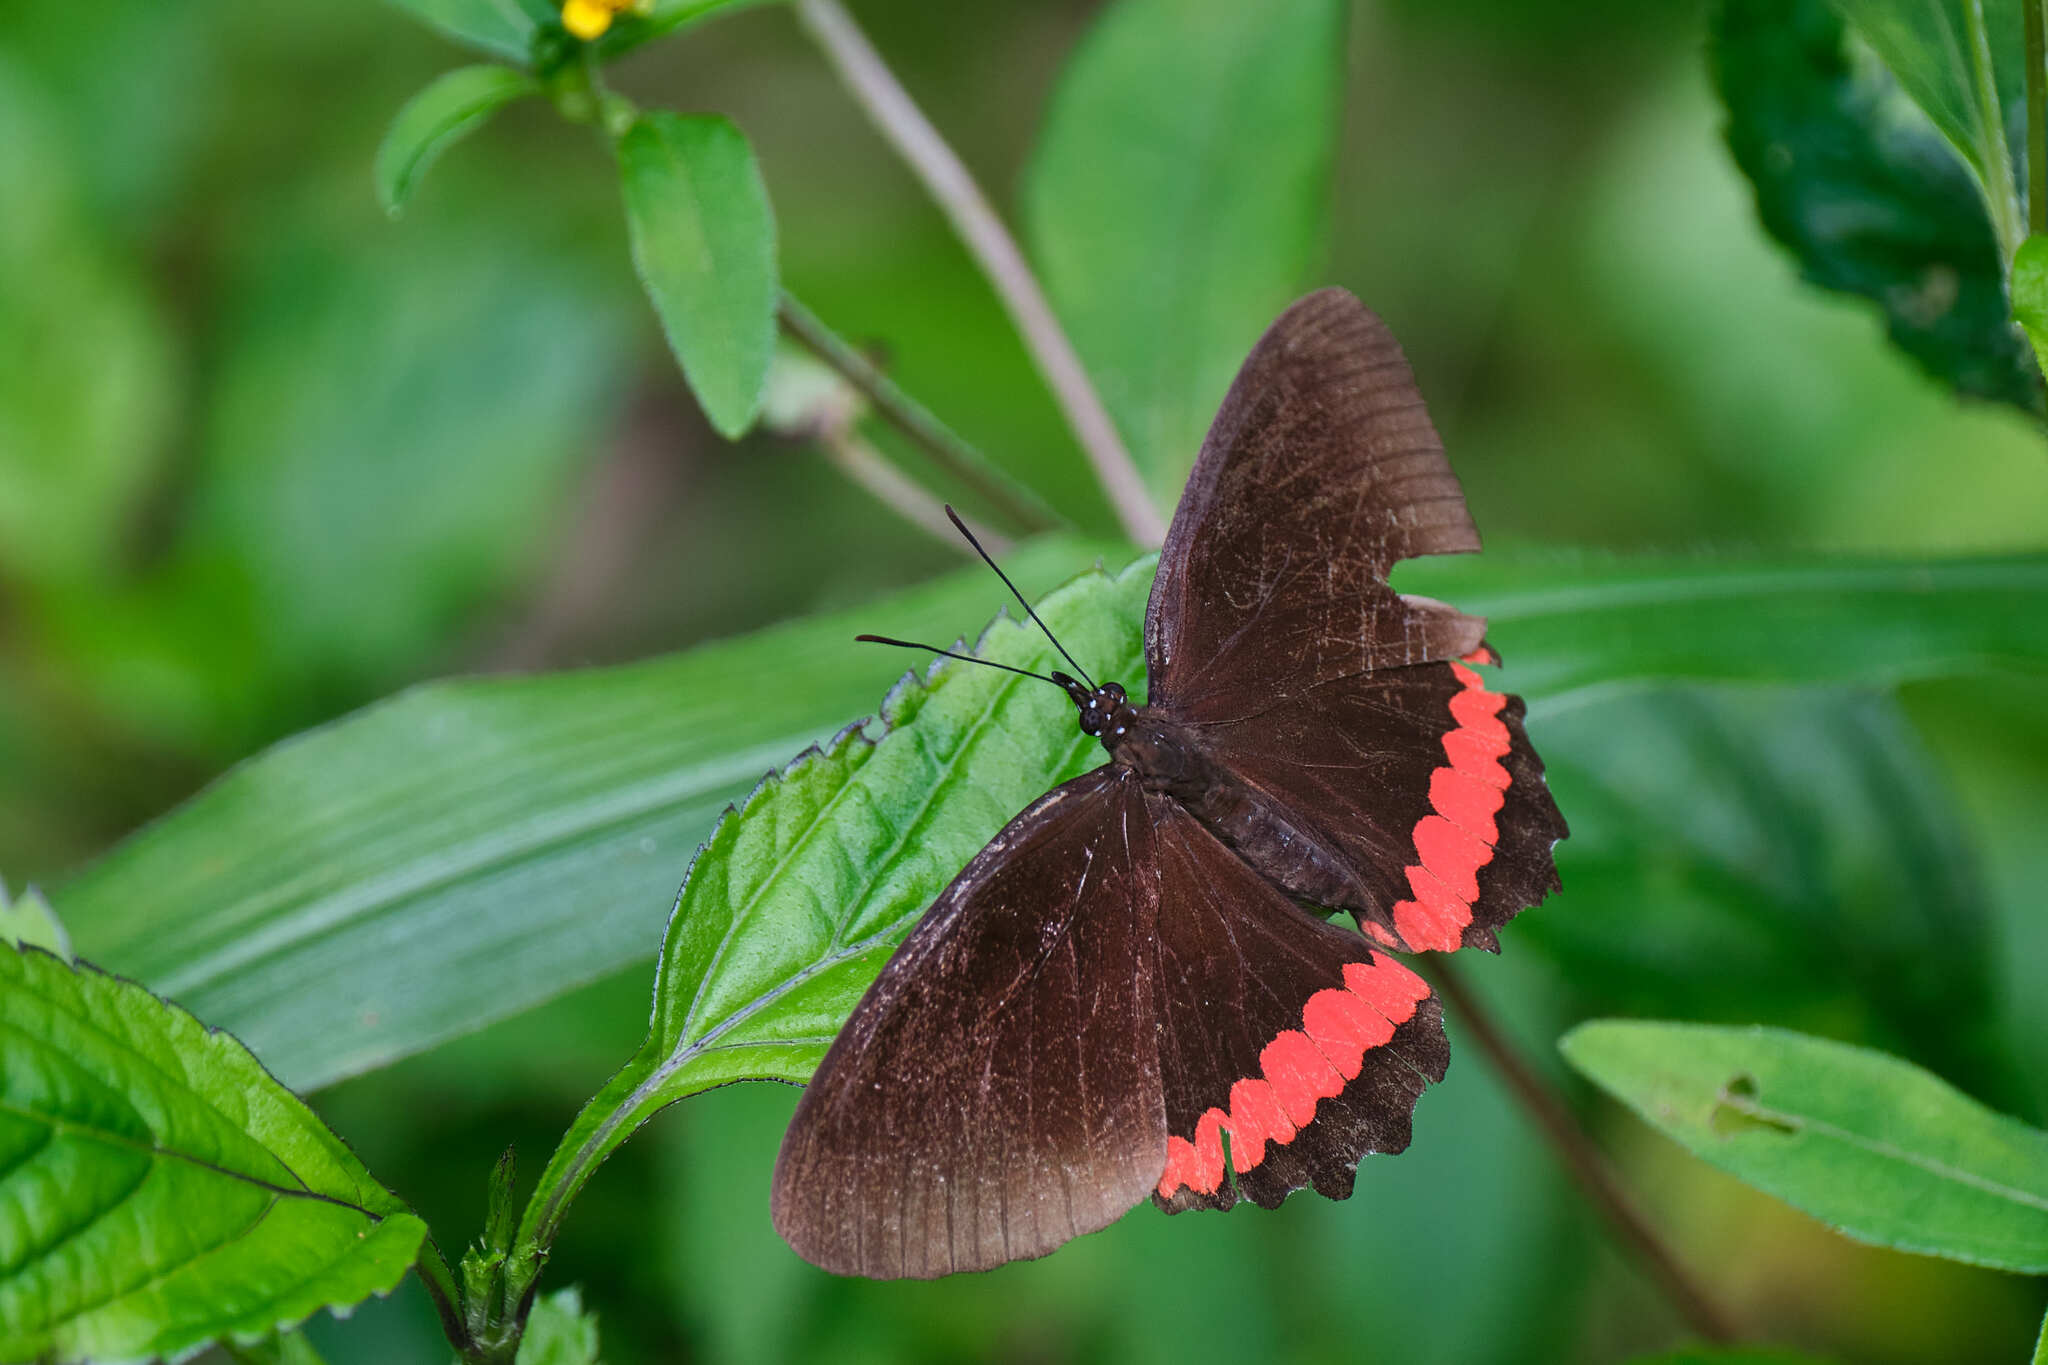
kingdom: Animalia
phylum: Arthropoda
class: Insecta
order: Lepidoptera
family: Nymphalidae
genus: Biblis
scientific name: Biblis aganisa
